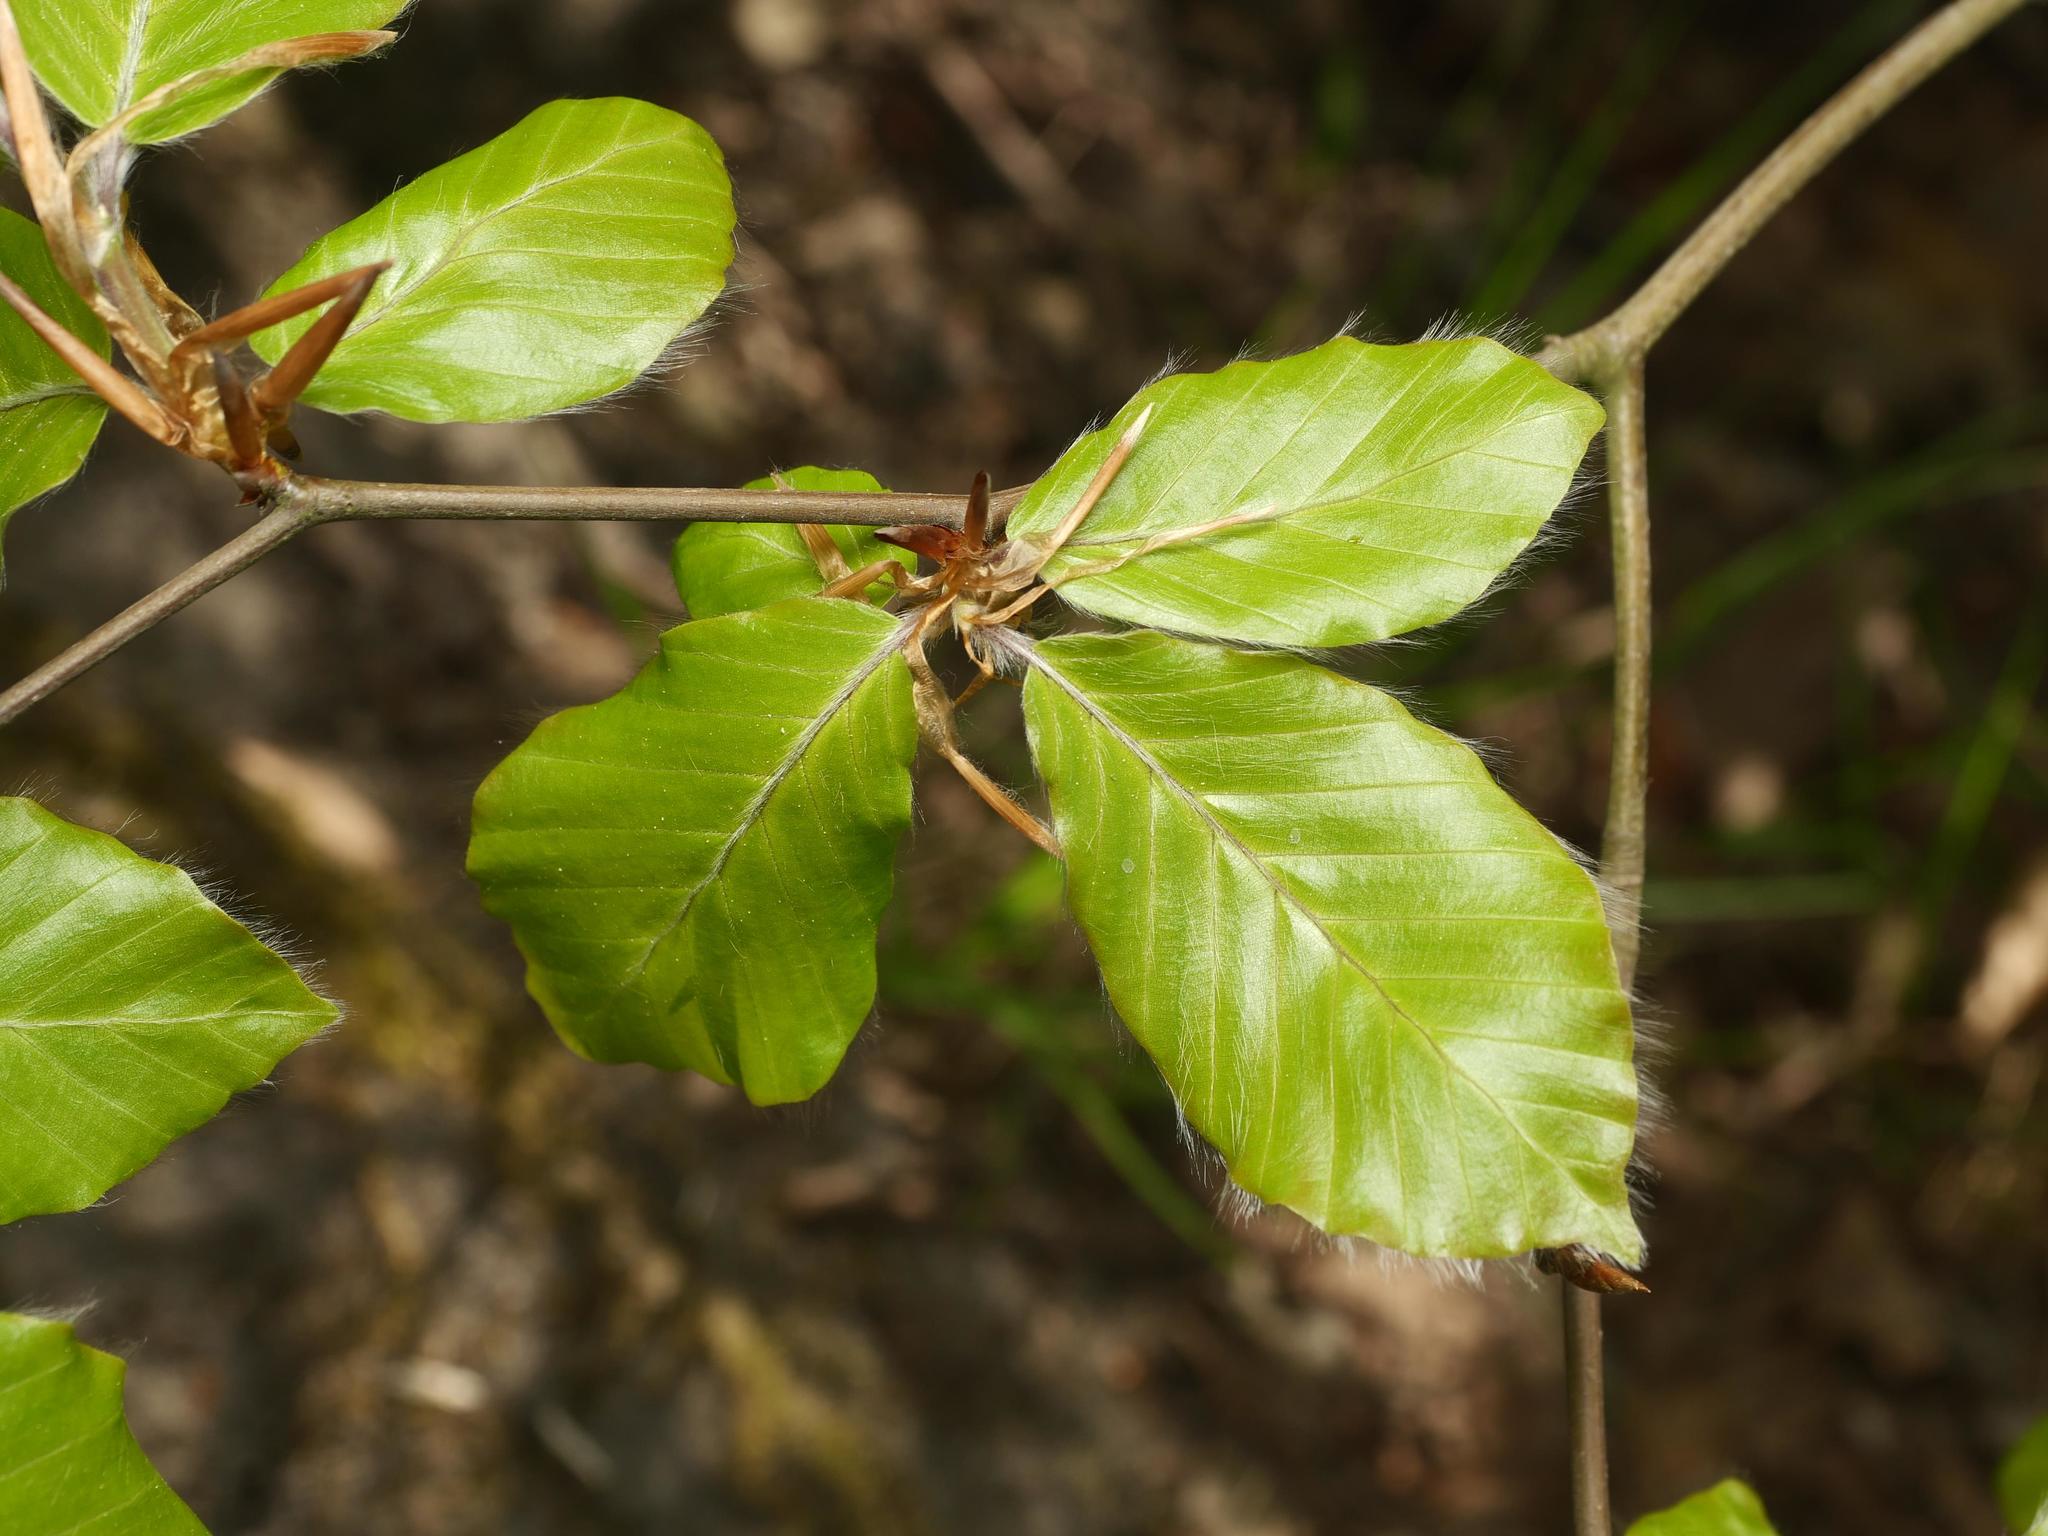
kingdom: Plantae
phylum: Tracheophyta
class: Magnoliopsida
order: Fagales
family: Fagaceae
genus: Fagus
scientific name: Fagus sylvatica
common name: Beech
